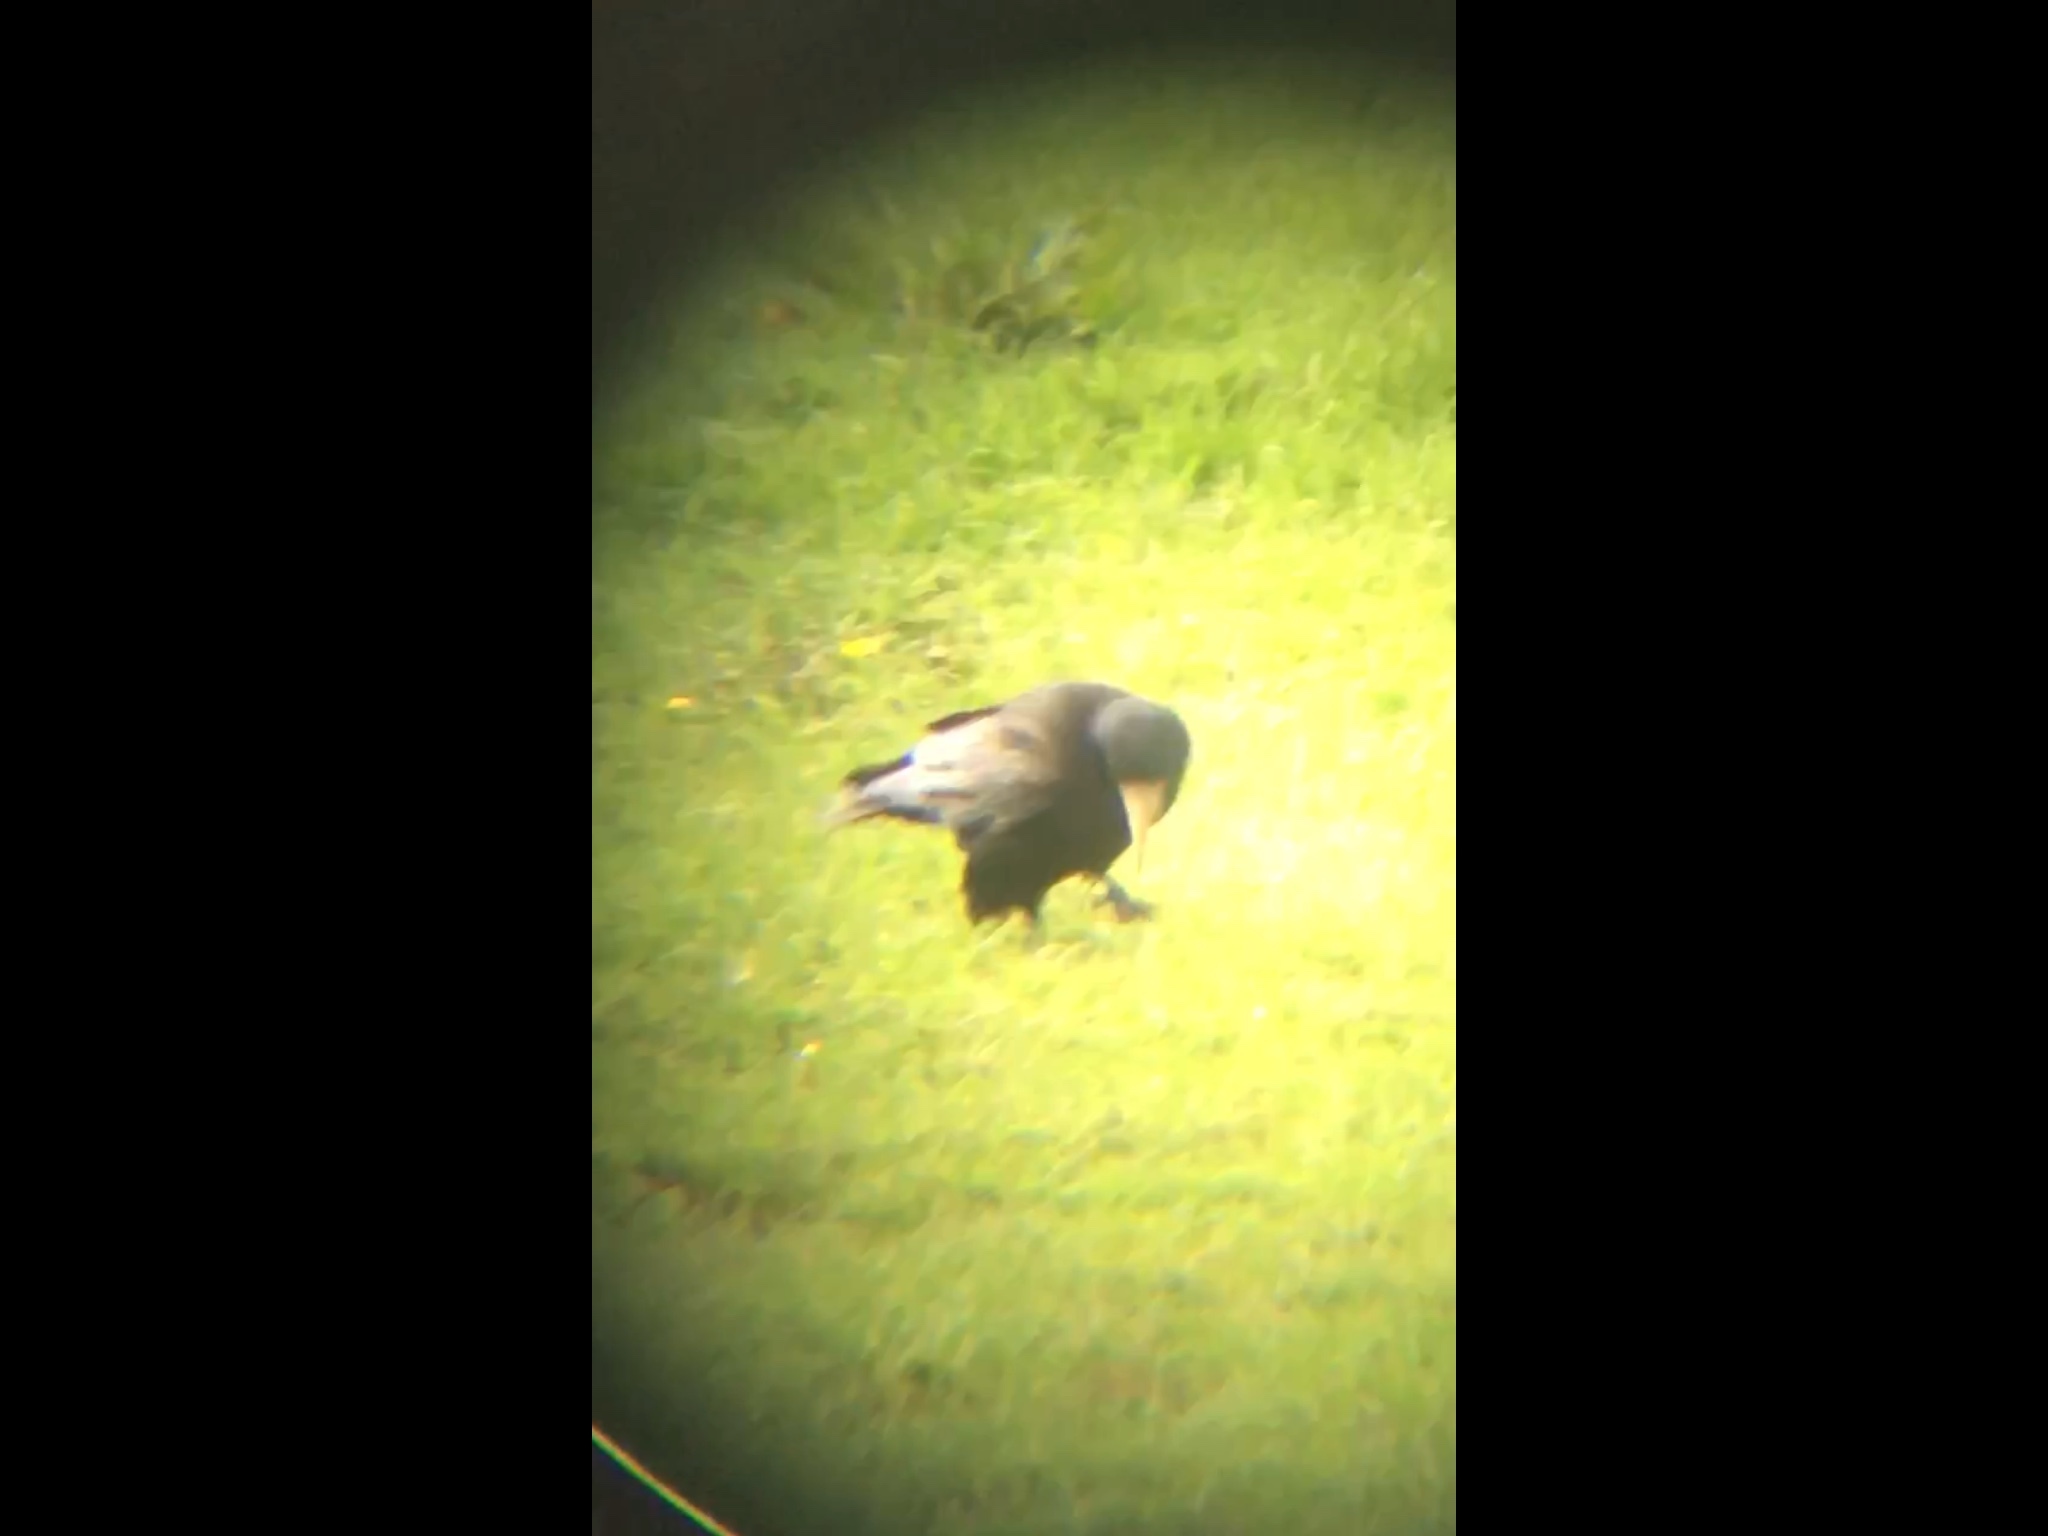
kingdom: Animalia
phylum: Chordata
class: Aves
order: Passeriformes
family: Corvidae
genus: Corvus
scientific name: Corvus frugilegus
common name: Rook
